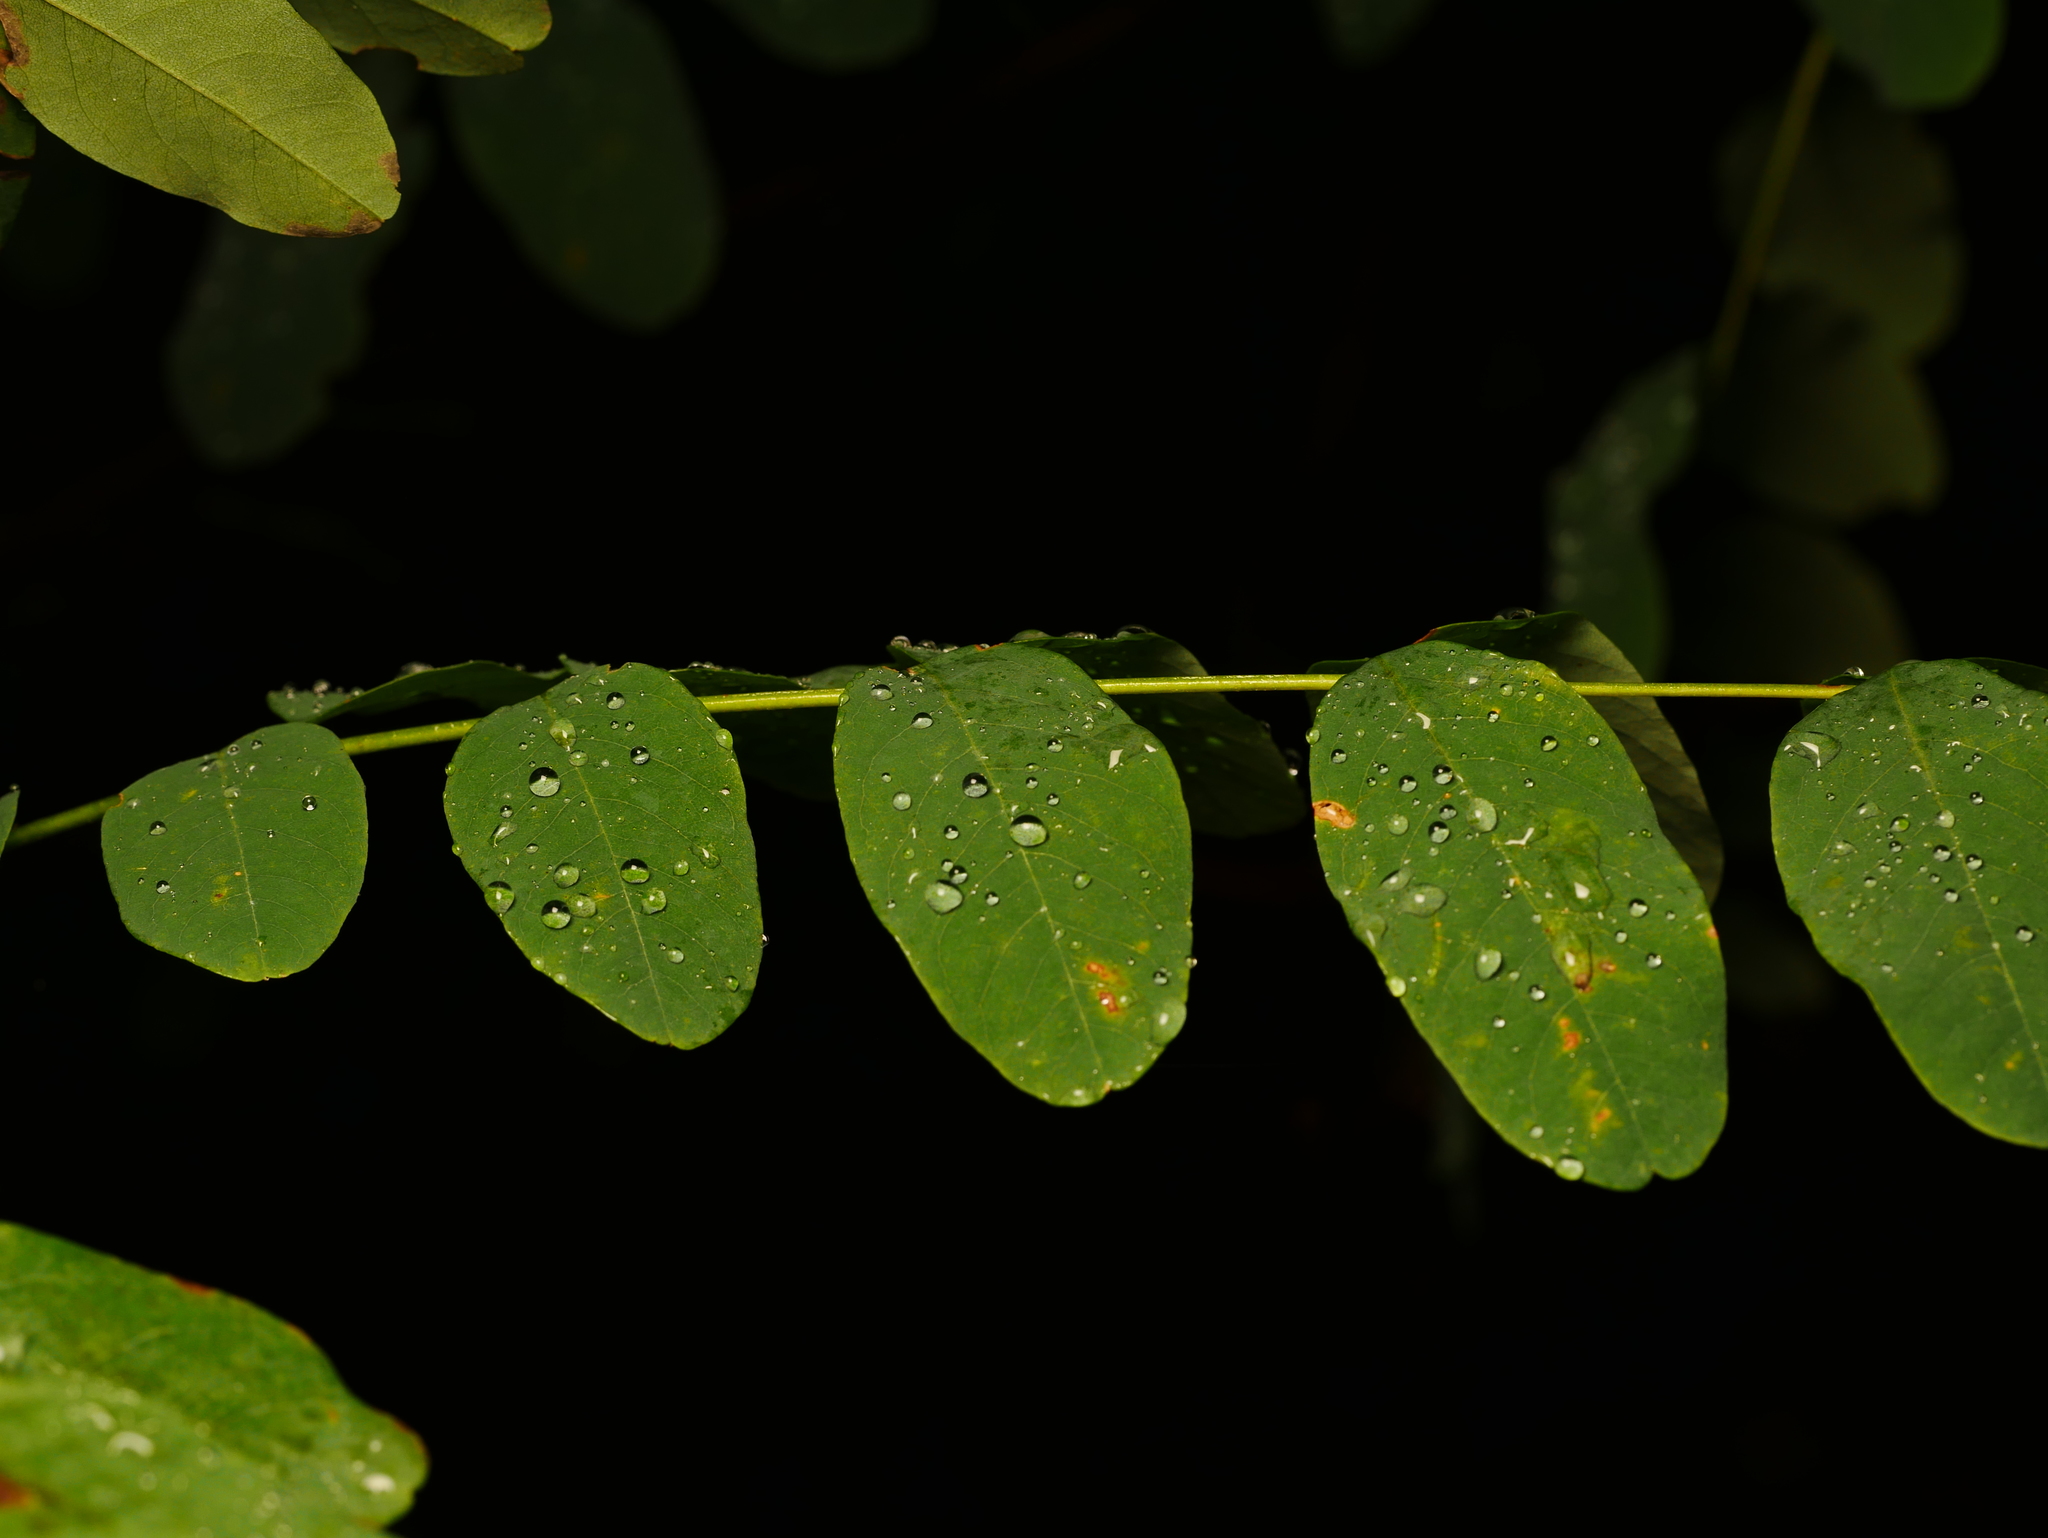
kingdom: Plantae
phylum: Tracheophyta
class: Magnoliopsida
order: Fabales
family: Fabaceae
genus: Robinia
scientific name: Robinia pseudoacacia
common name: Black locust
